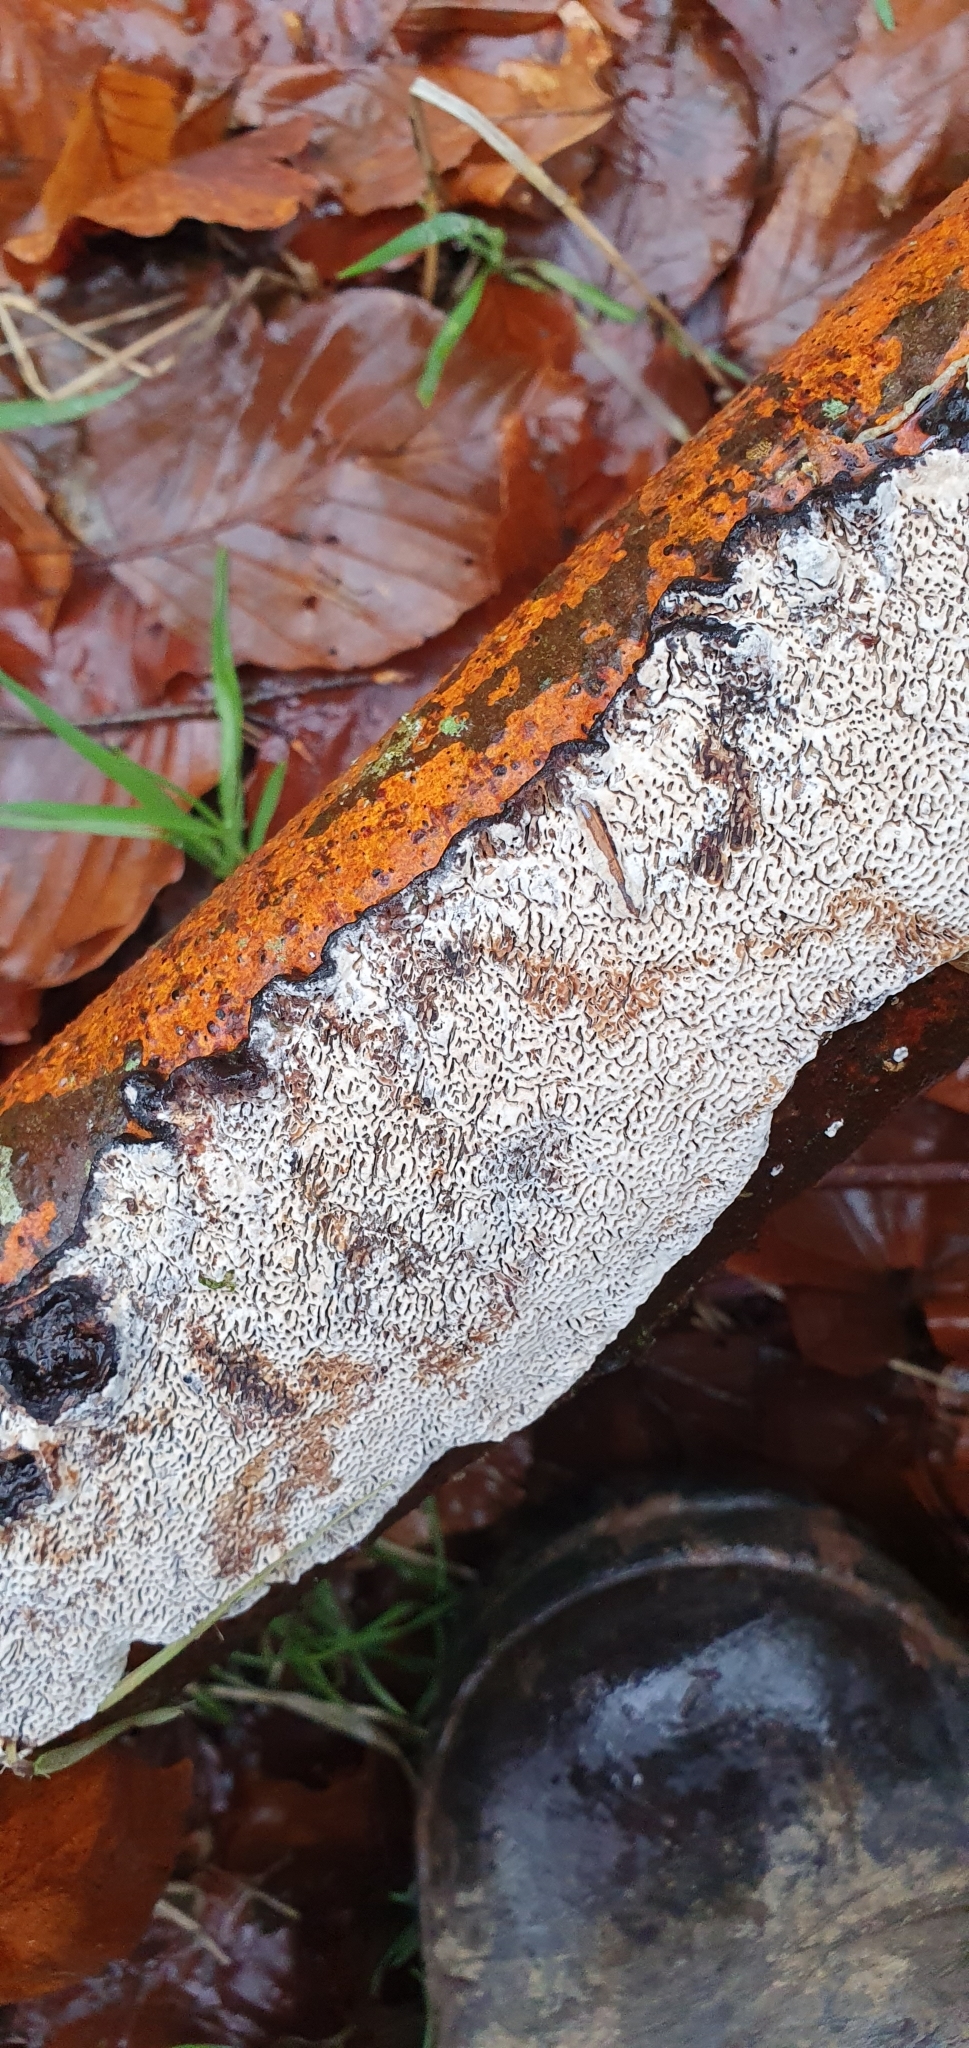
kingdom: Fungi
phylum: Basidiomycota
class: Agaricomycetes
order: Polyporales
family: Polyporaceae
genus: Podofomes
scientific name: Podofomes mollis
